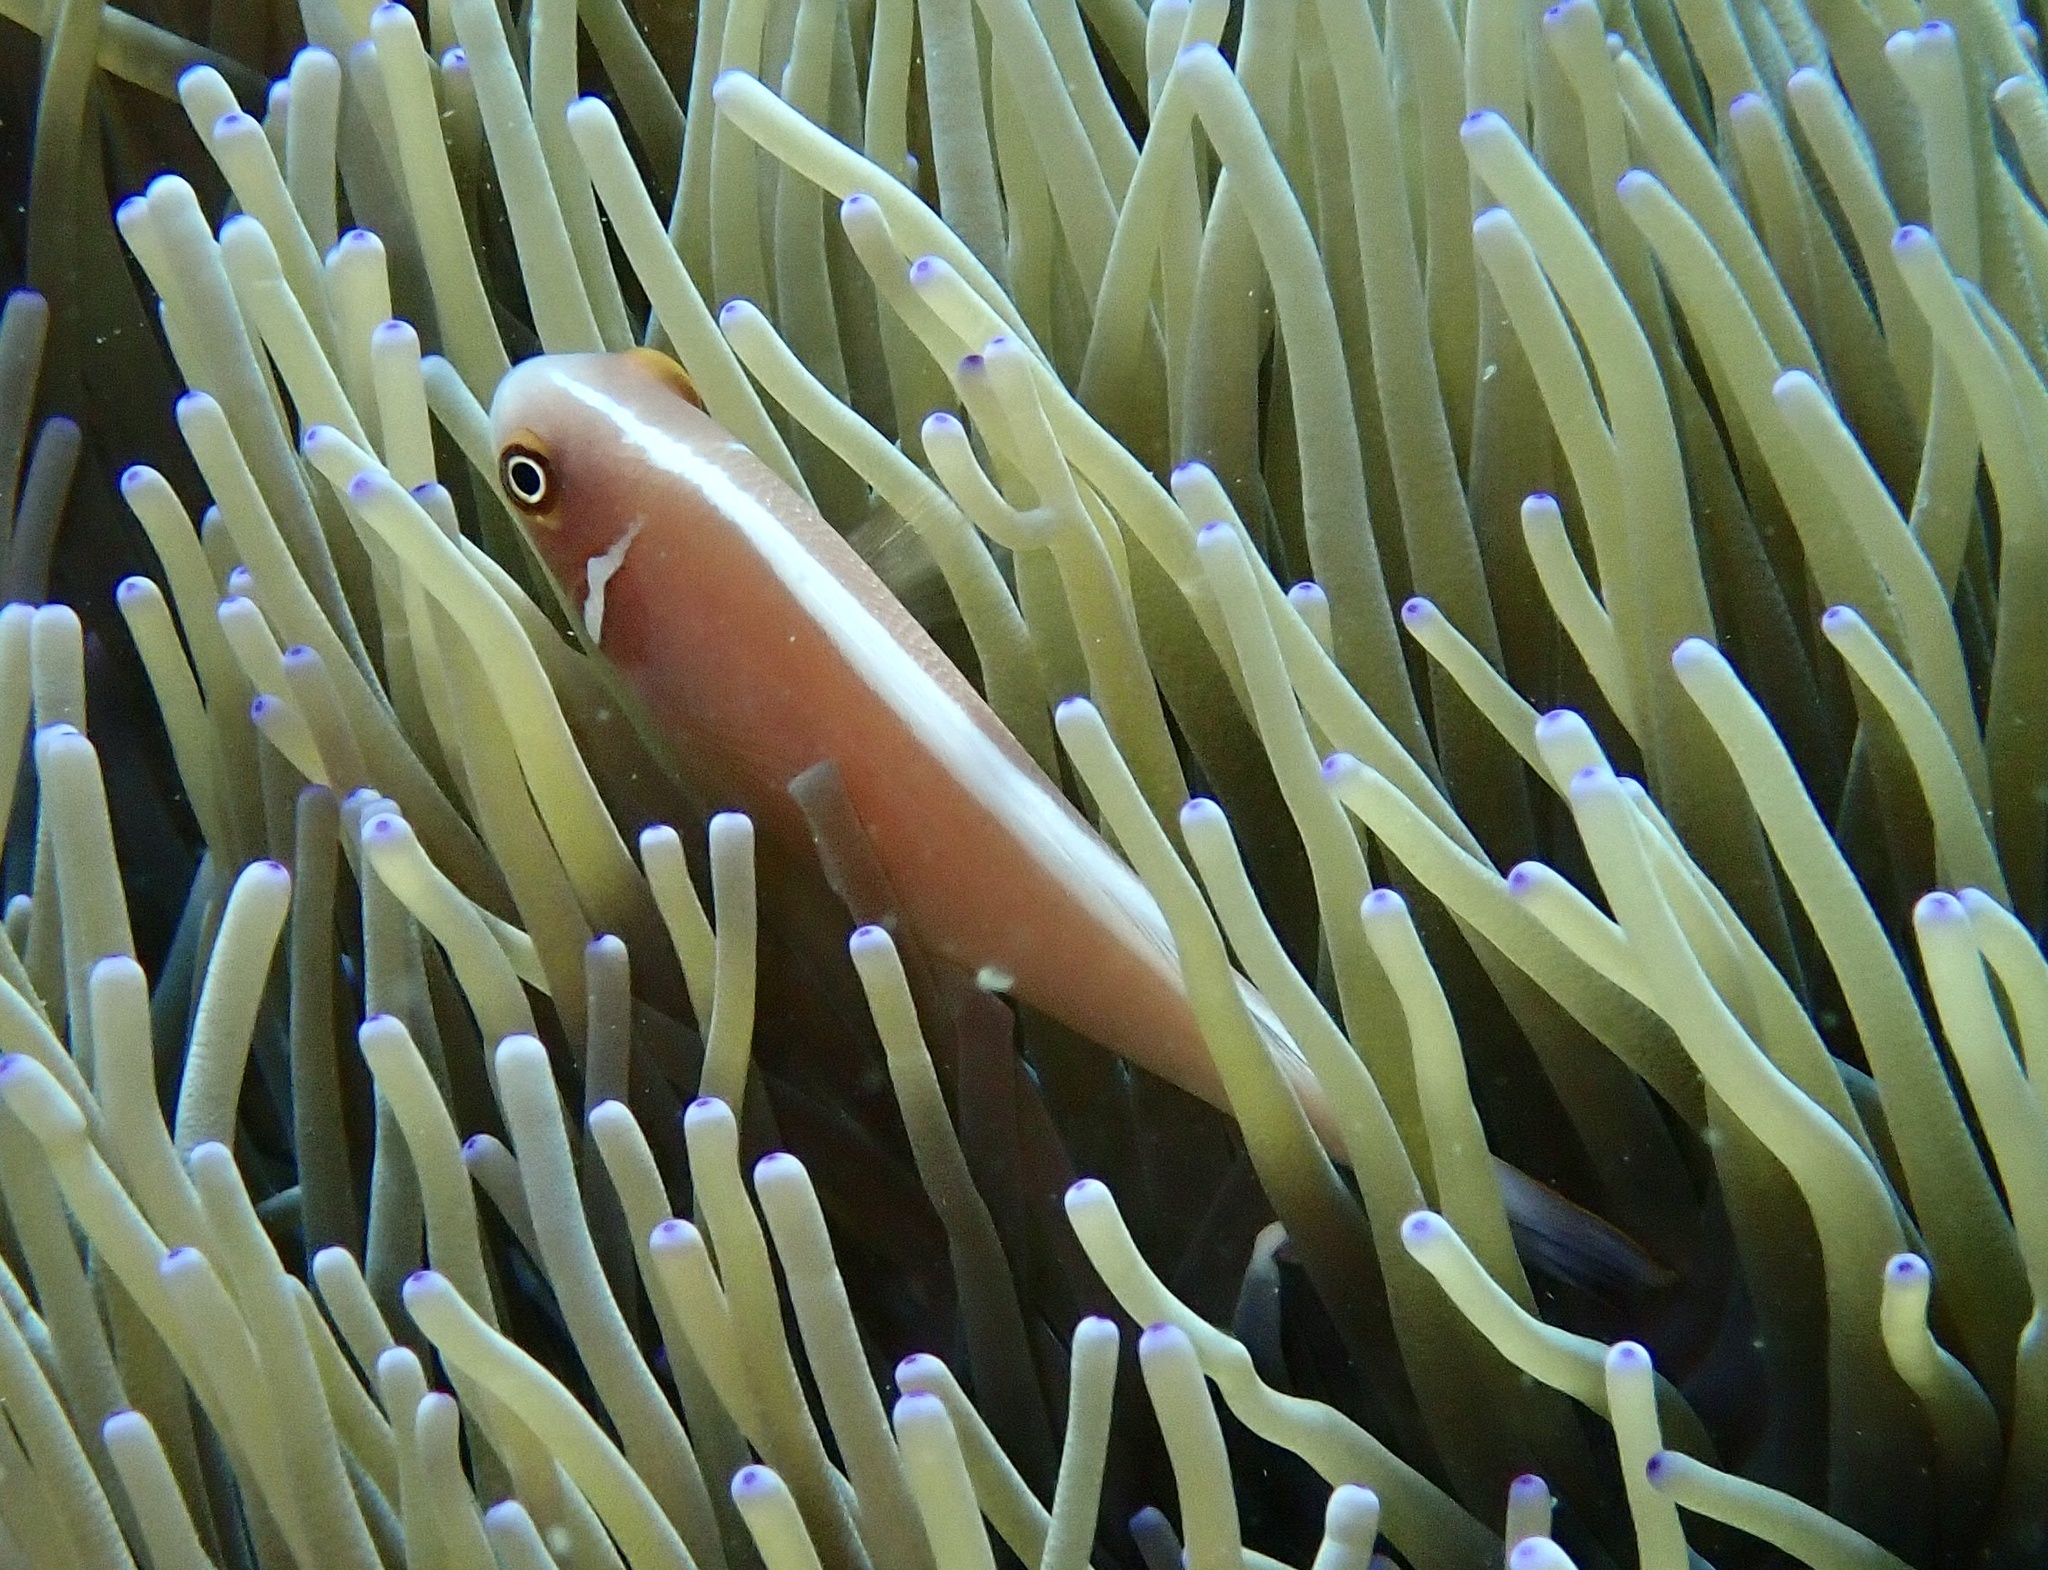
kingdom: Animalia
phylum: Chordata
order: Perciformes
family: Pomacentridae
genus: Amphiprion
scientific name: Amphiprion perideraion
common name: Pink anemonefish
